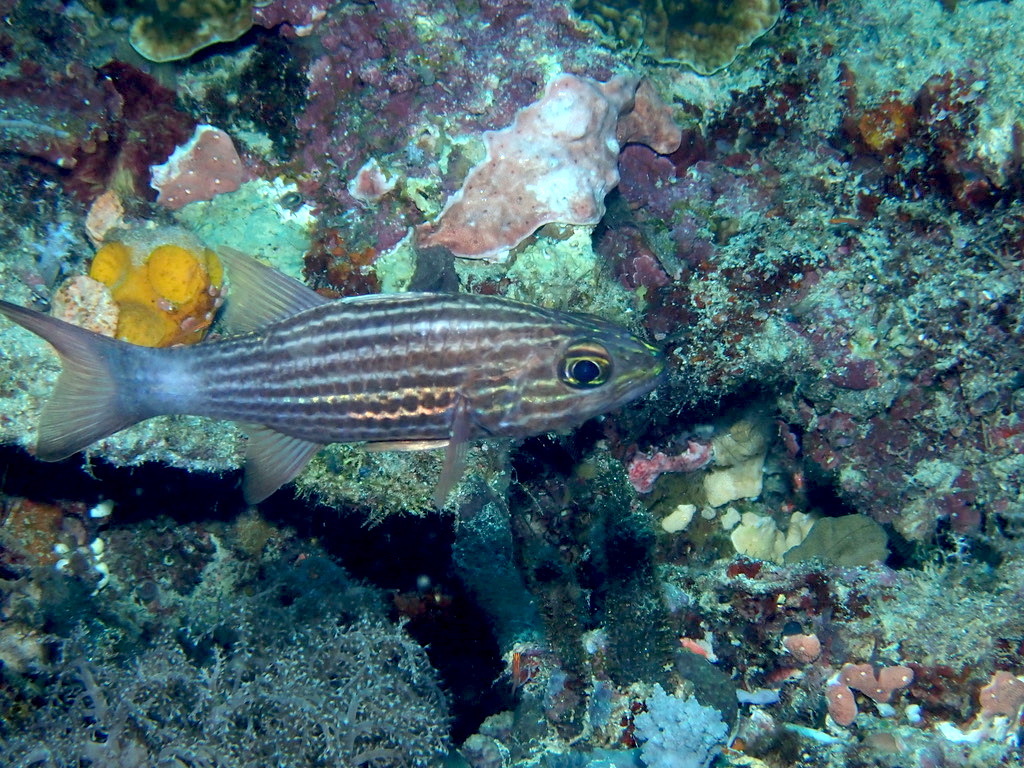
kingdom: Animalia
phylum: Chordata
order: Perciformes
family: Apogonidae
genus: Cheilodipterus
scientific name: Cheilodipterus macrodon
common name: Eight-lined cardinalfish
